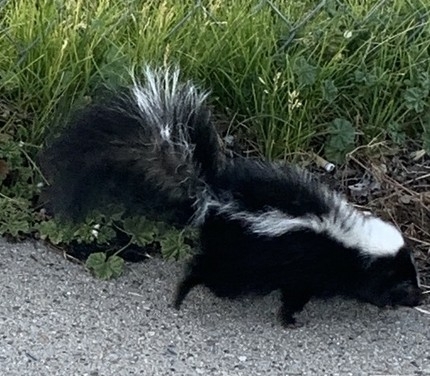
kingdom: Animalia
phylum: Chordata
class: Mammalia
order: Carnivora
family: Mephitidae
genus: Mephitis
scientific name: Mephitis mephitis
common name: Striped skunk
